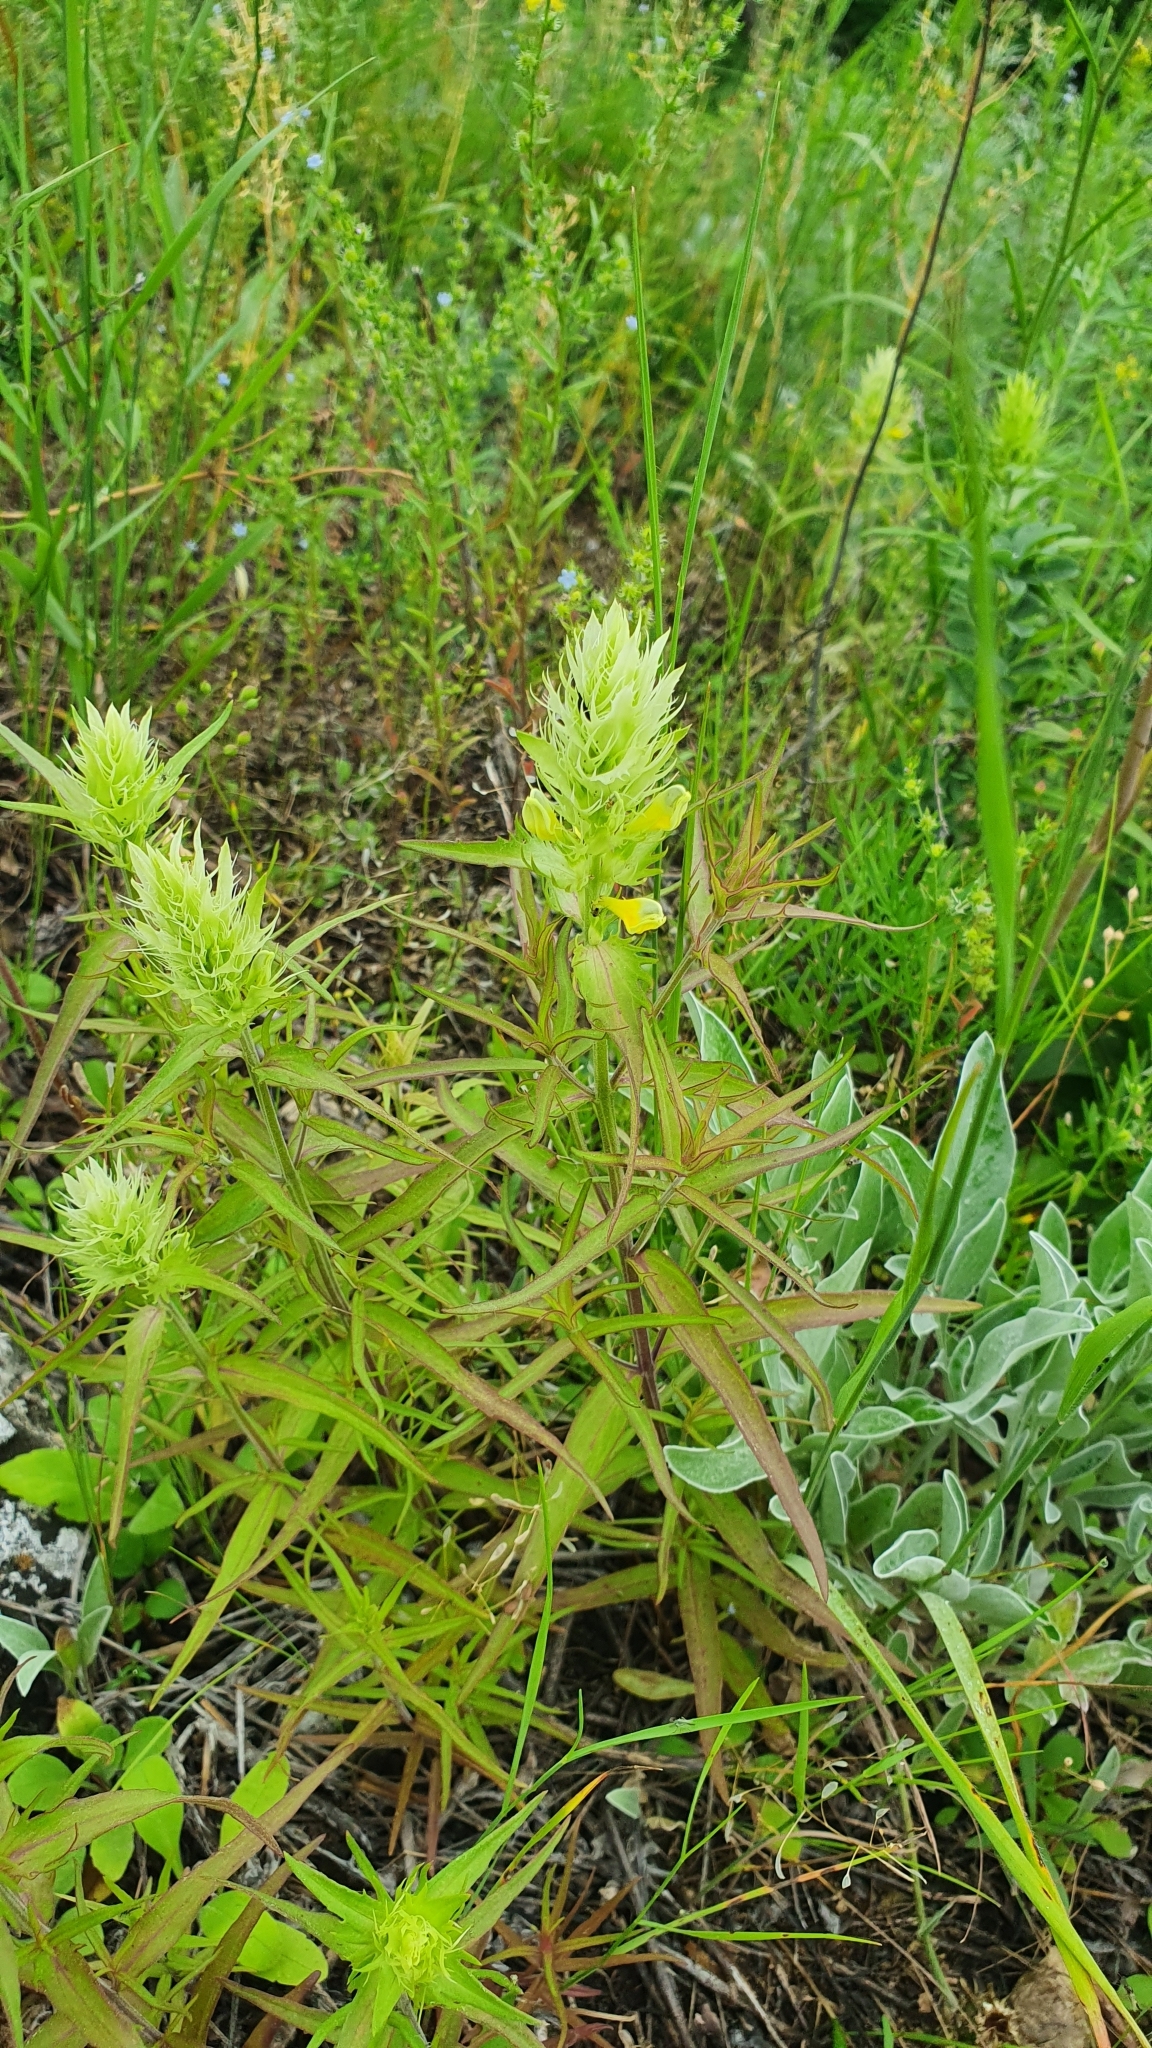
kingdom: Plantae
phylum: Tracheophyta
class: Magnoliopsida
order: Lamiales
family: Orobanchaceae
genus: Melampyrum
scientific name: Melampyrum arvense
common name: Field cow-wheat
